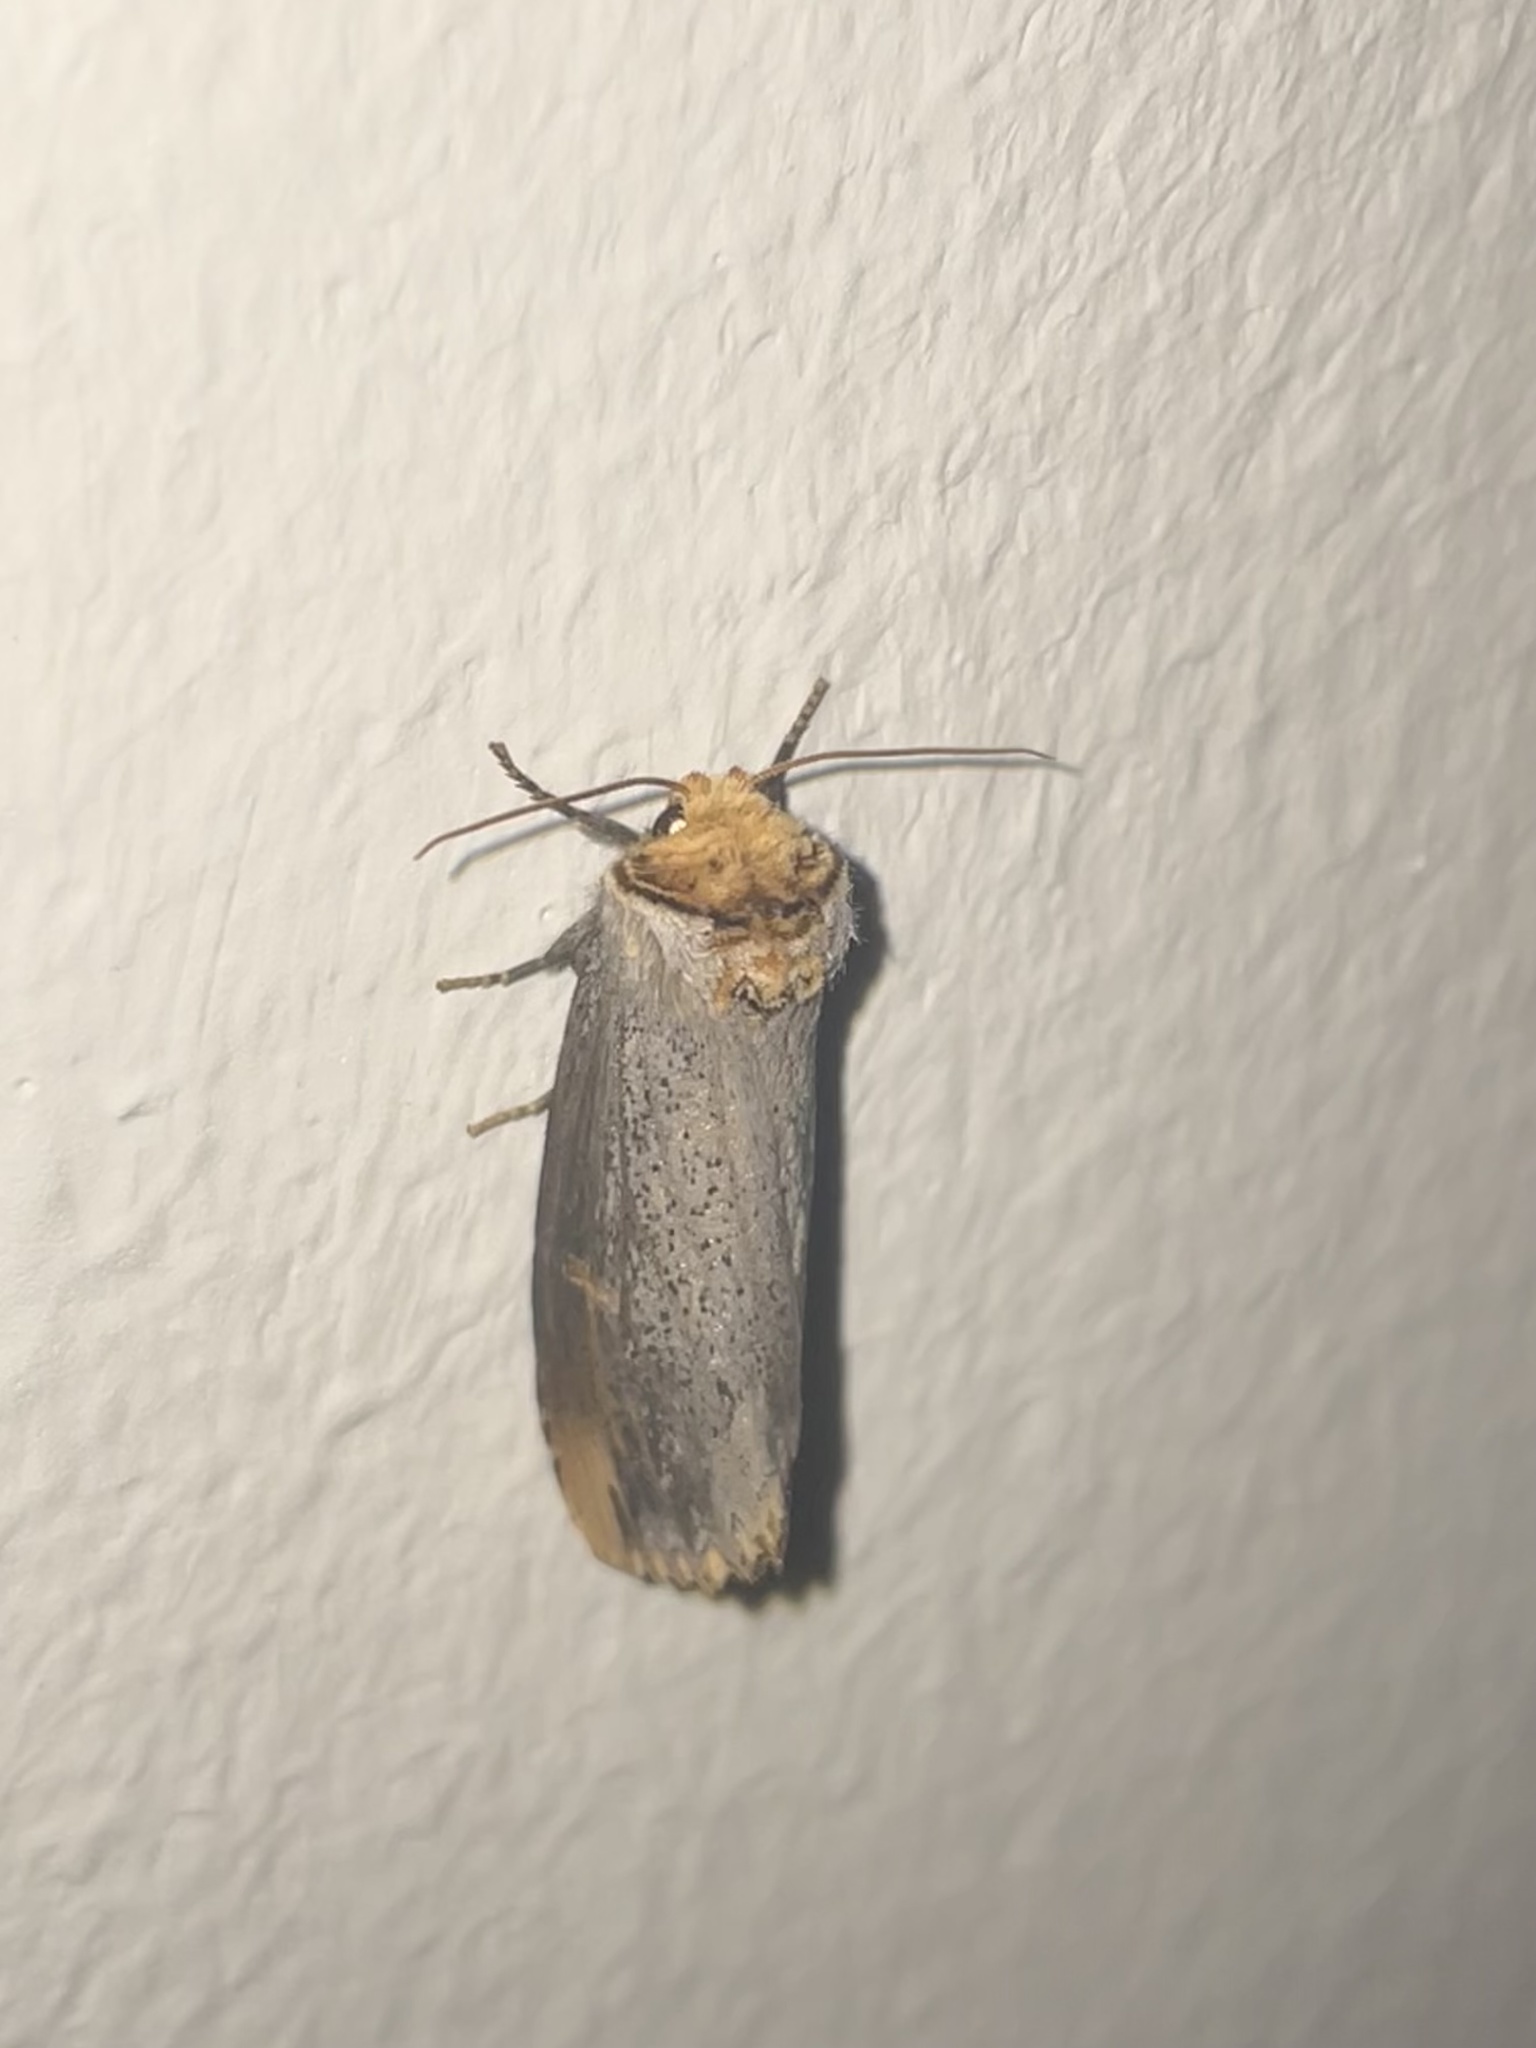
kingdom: Animalia
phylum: Arthropoda
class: Insecta
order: Lepidoptera
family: Notodontidae
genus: Phalera
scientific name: Phalera lydenburgi
